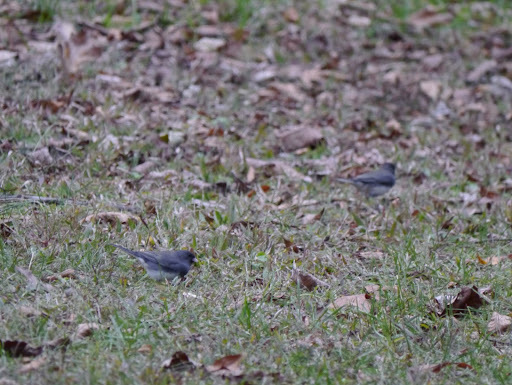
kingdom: Animalia
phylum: Chordata
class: Aves
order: Passeriformes
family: Passerellidae
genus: Junco
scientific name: Junco hyemalis
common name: Dark-eyed junco
